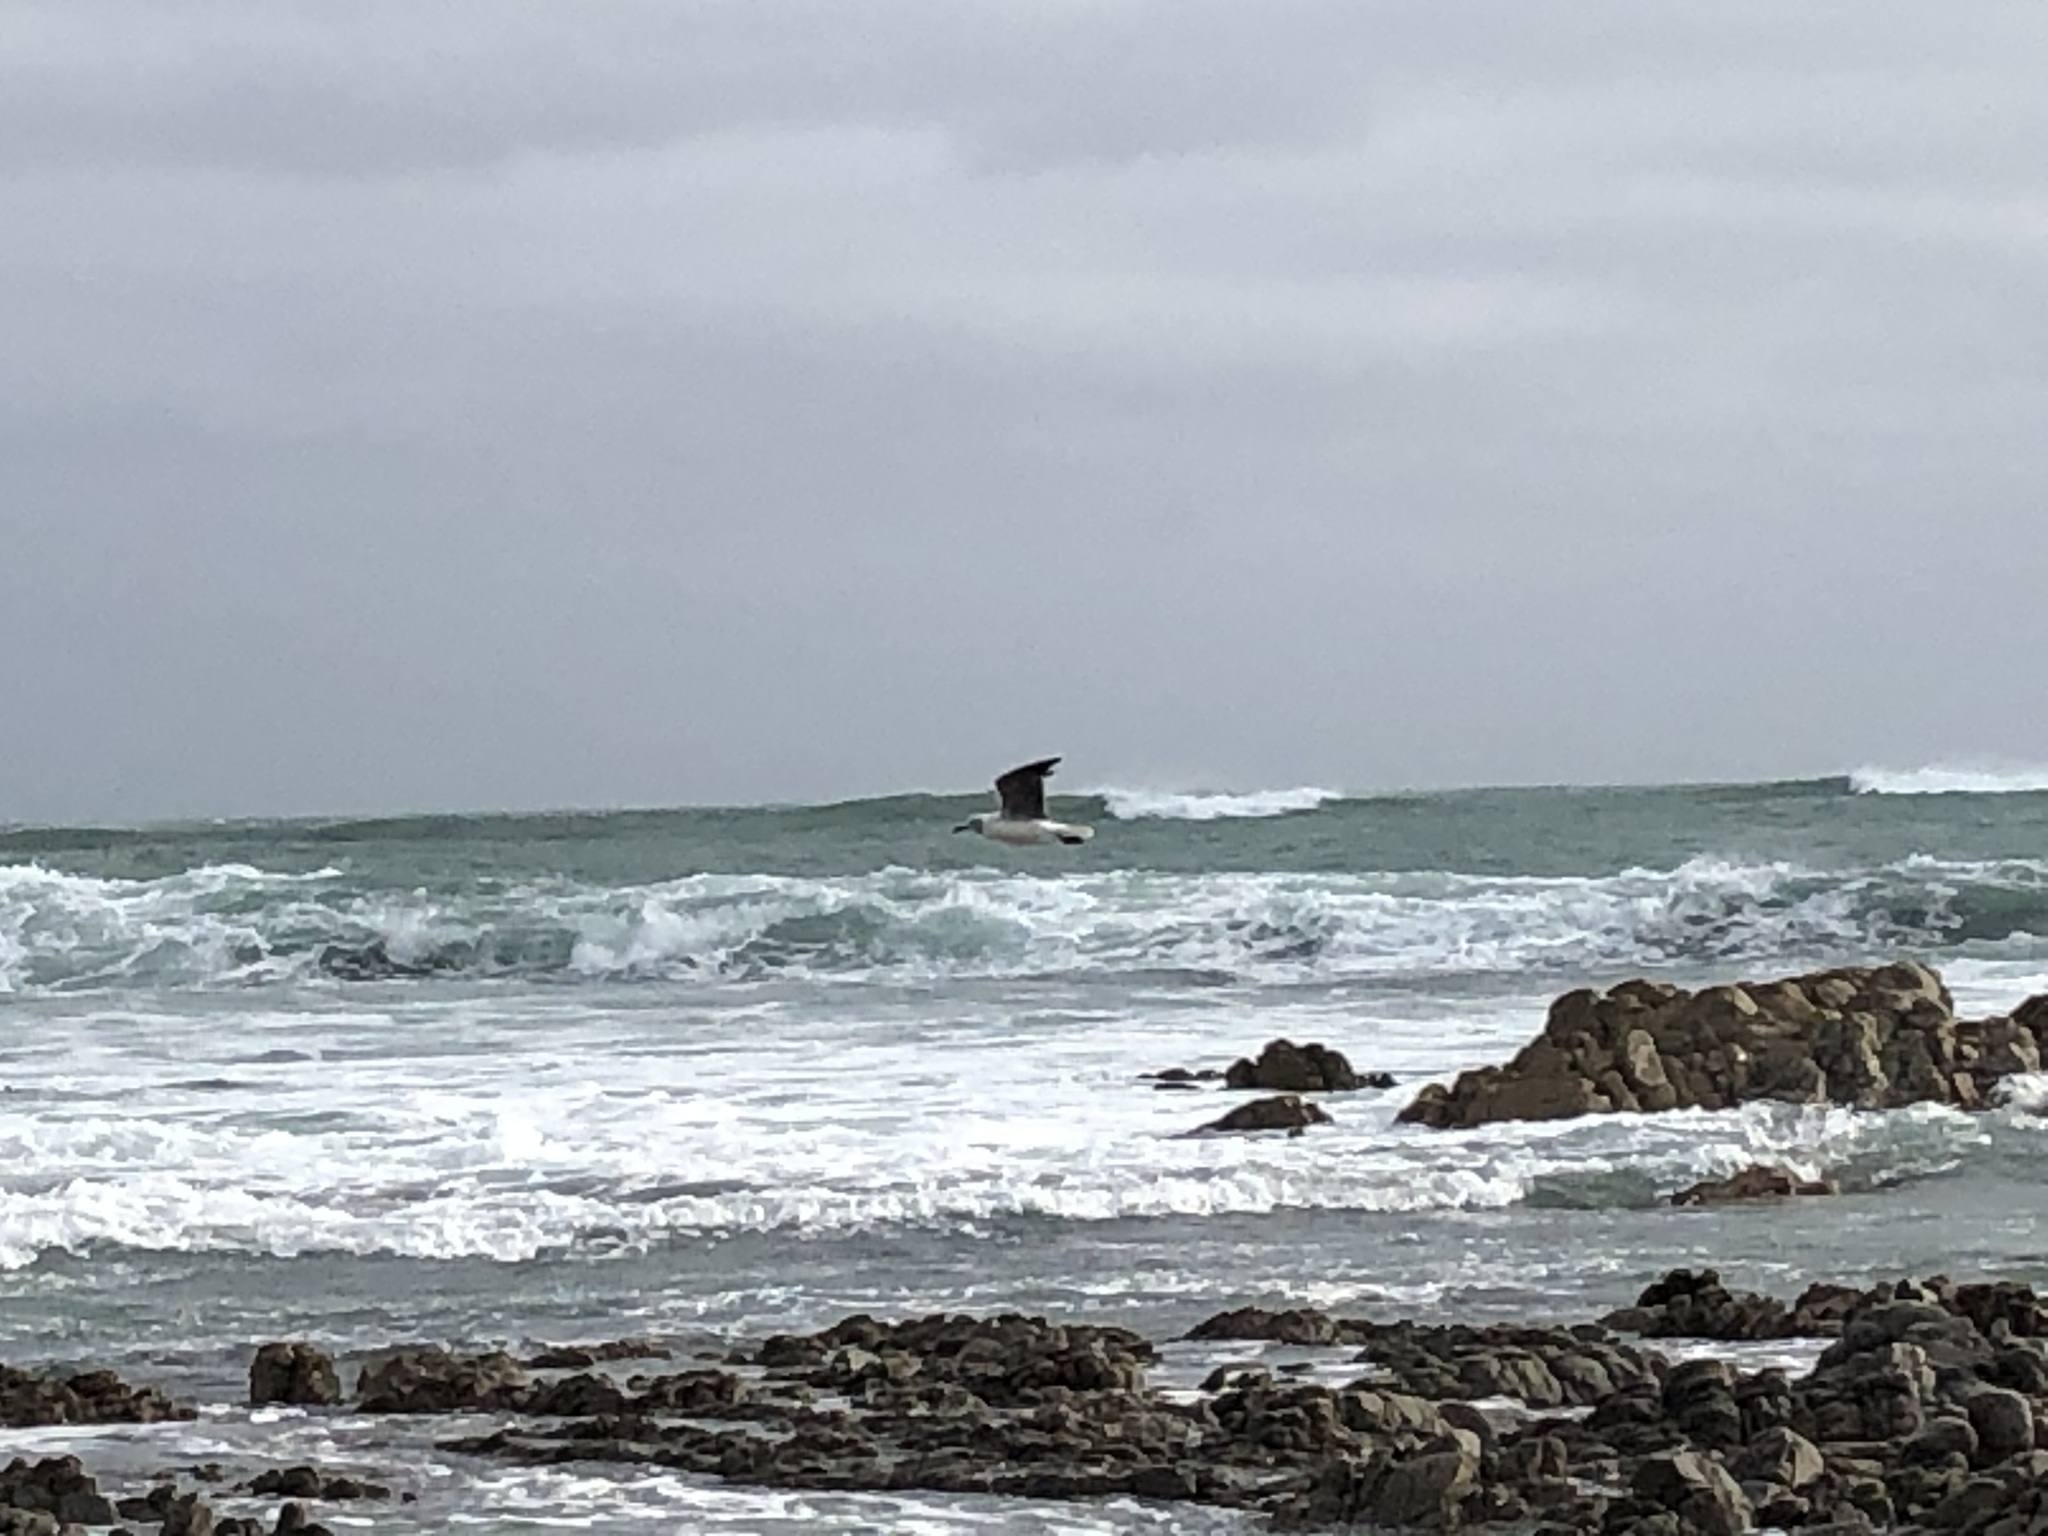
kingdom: Animalia
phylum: Chordata
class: Aves
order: Charadriiformes
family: Laridae
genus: Chroicocephalus
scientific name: Chroicocephalus cirrocephalus
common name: Grey-headed gull
